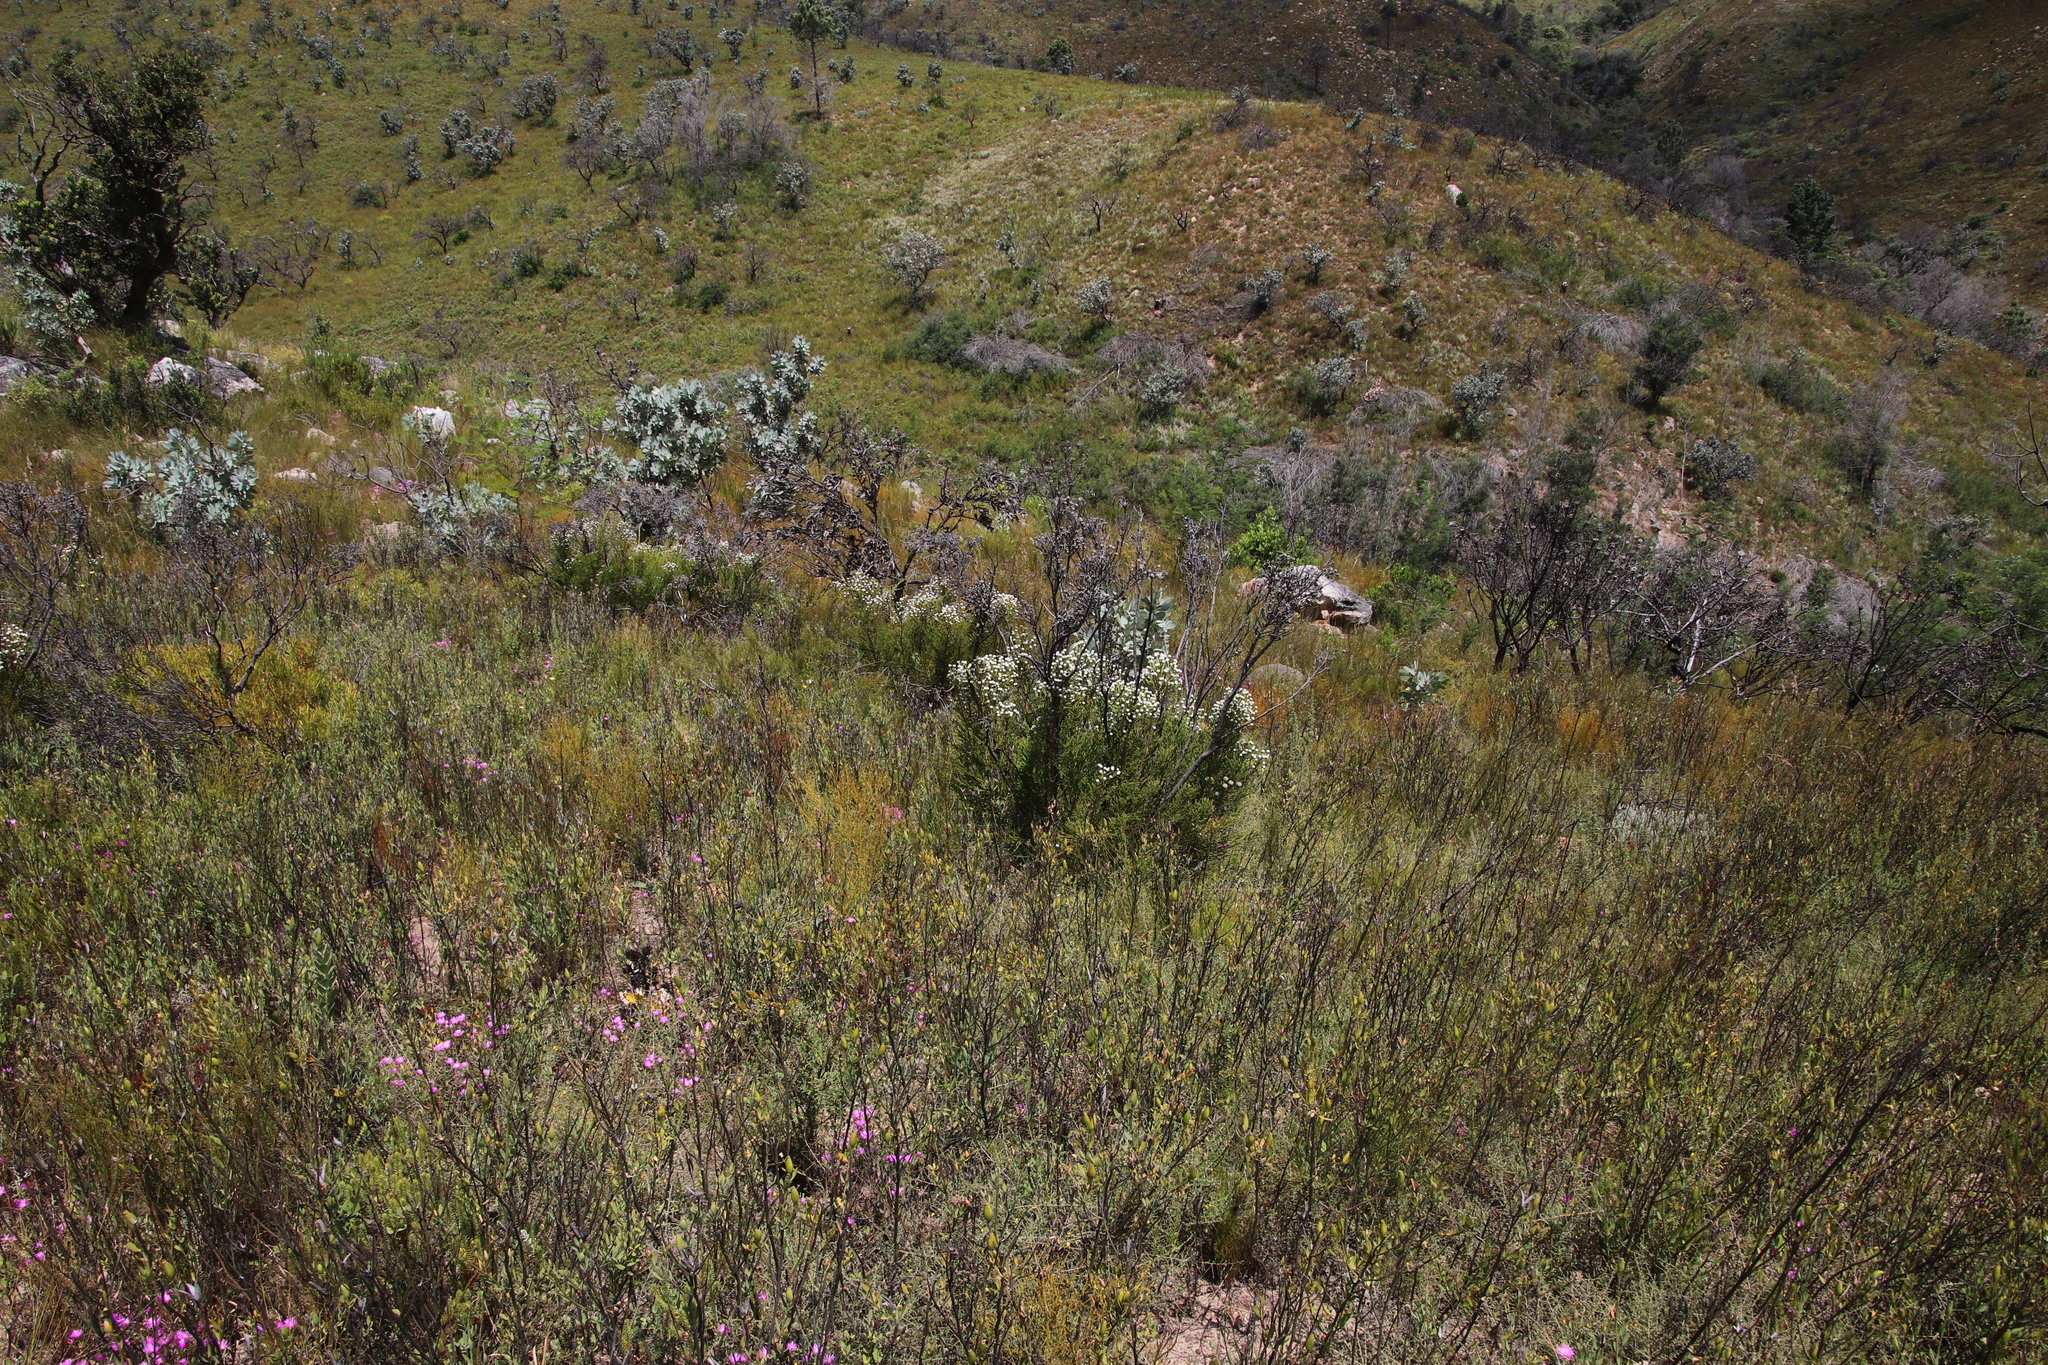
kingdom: Plantae
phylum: Tracheophyta
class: Magnoliopsida
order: Bruniales
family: Bruniaceae
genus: Brunia
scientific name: Brunia noduliflora
